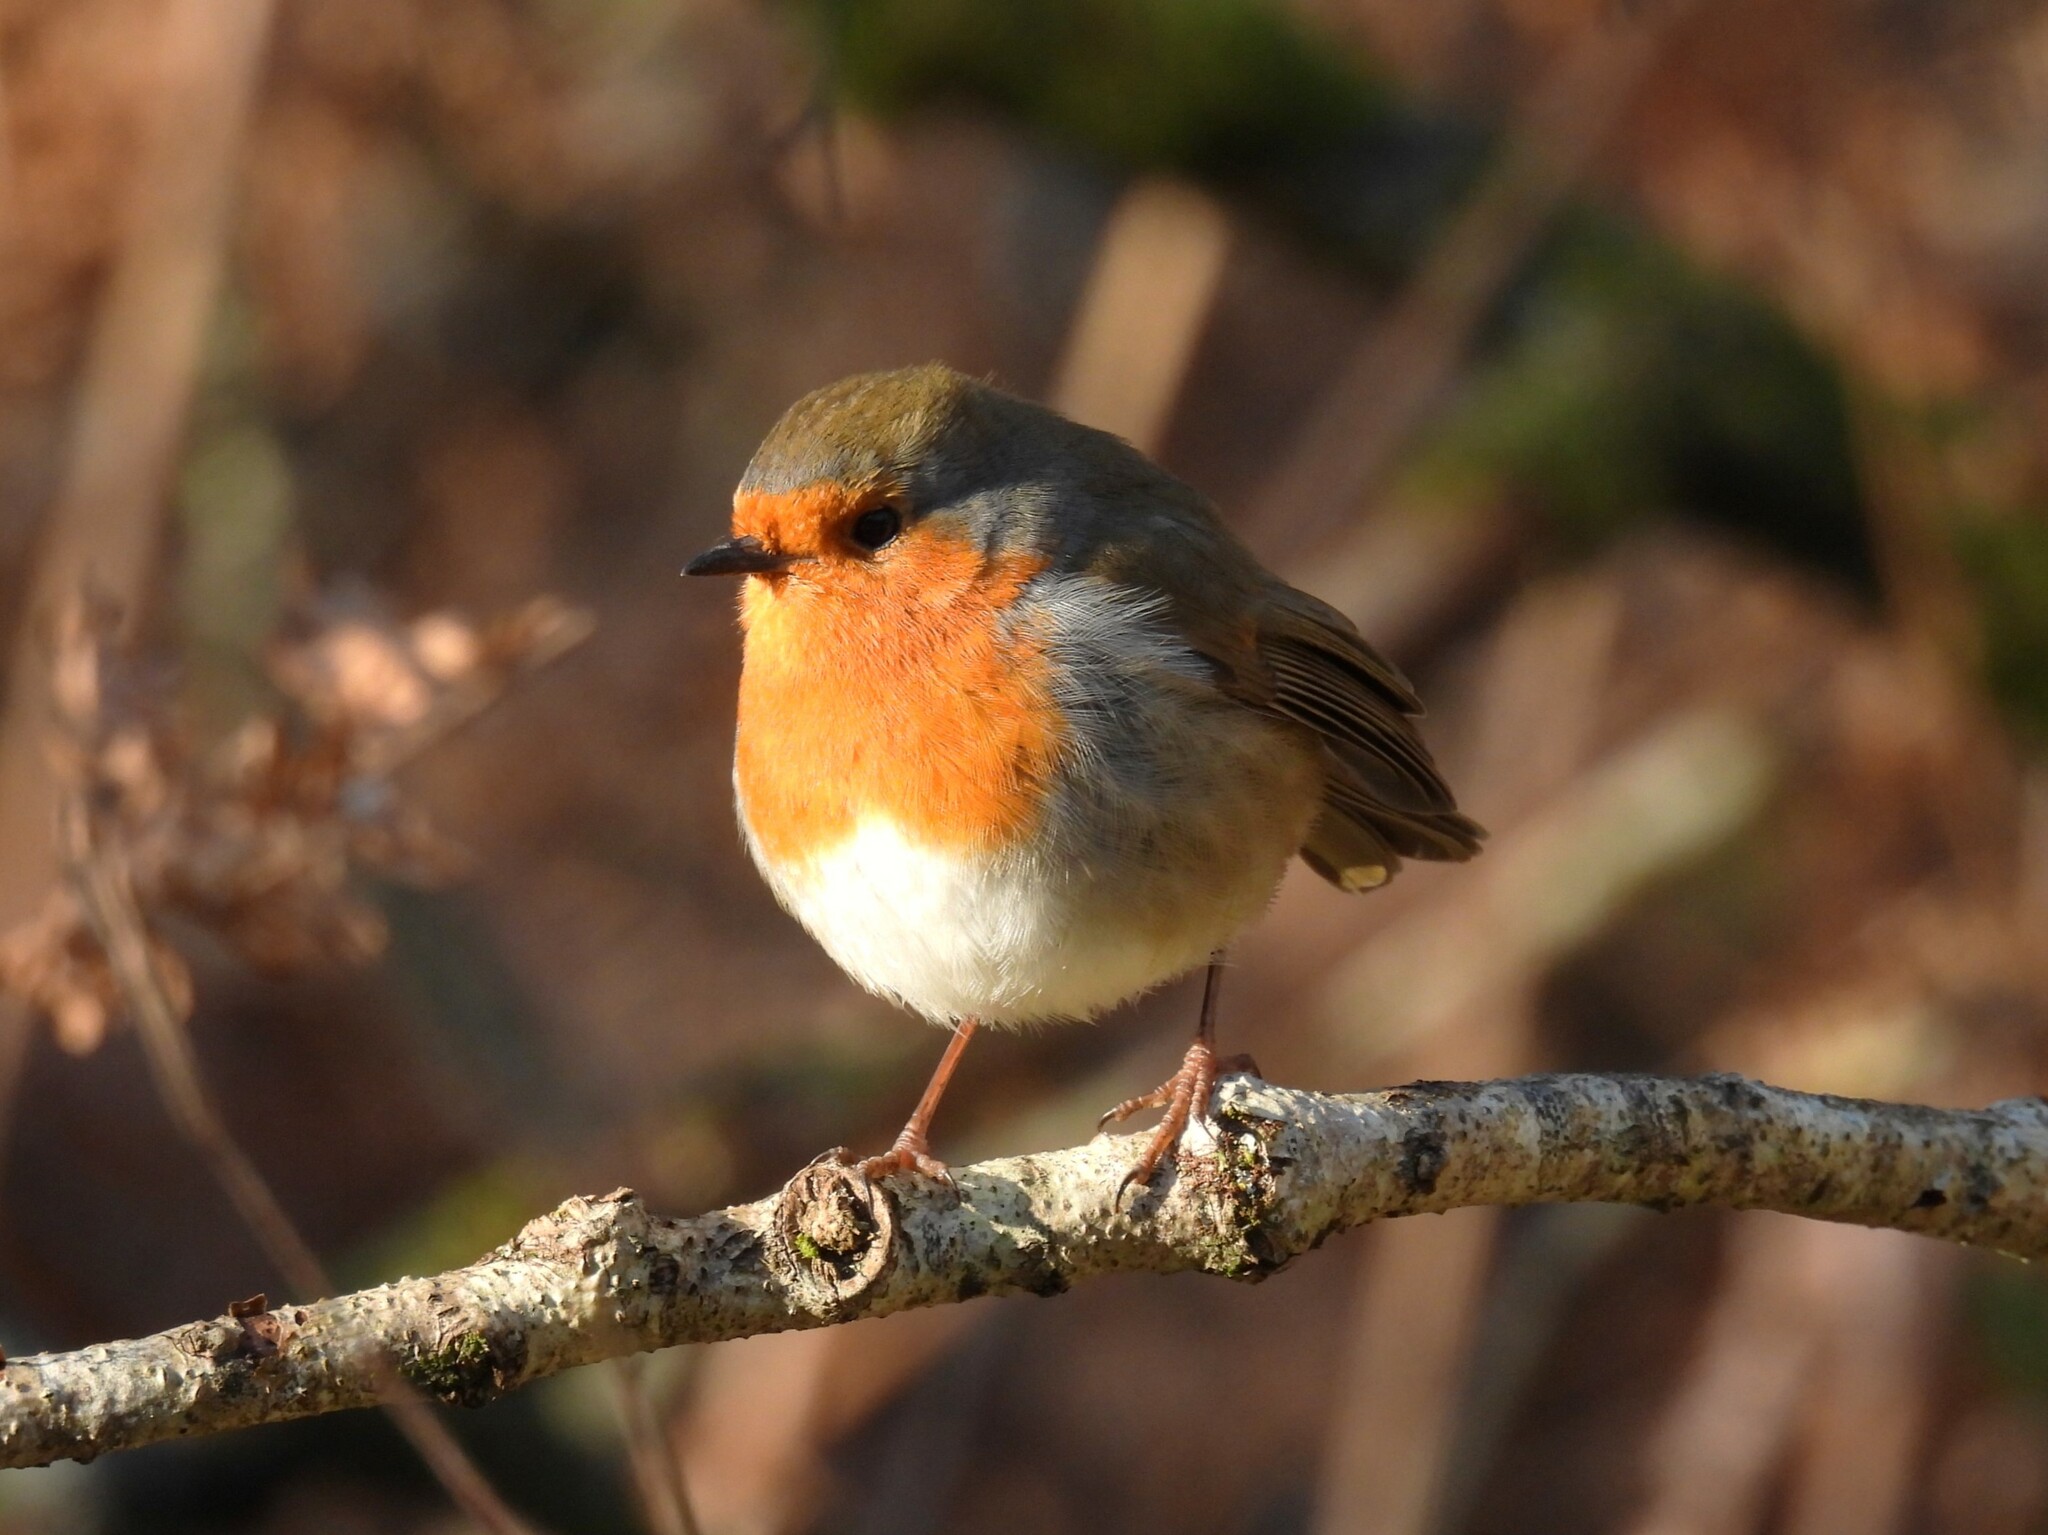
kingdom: Animalia
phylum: Chordata
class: Aves
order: Passeriformes
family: Muscicapidae
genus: Erithacus
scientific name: Erithacus rubecula
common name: European robin
